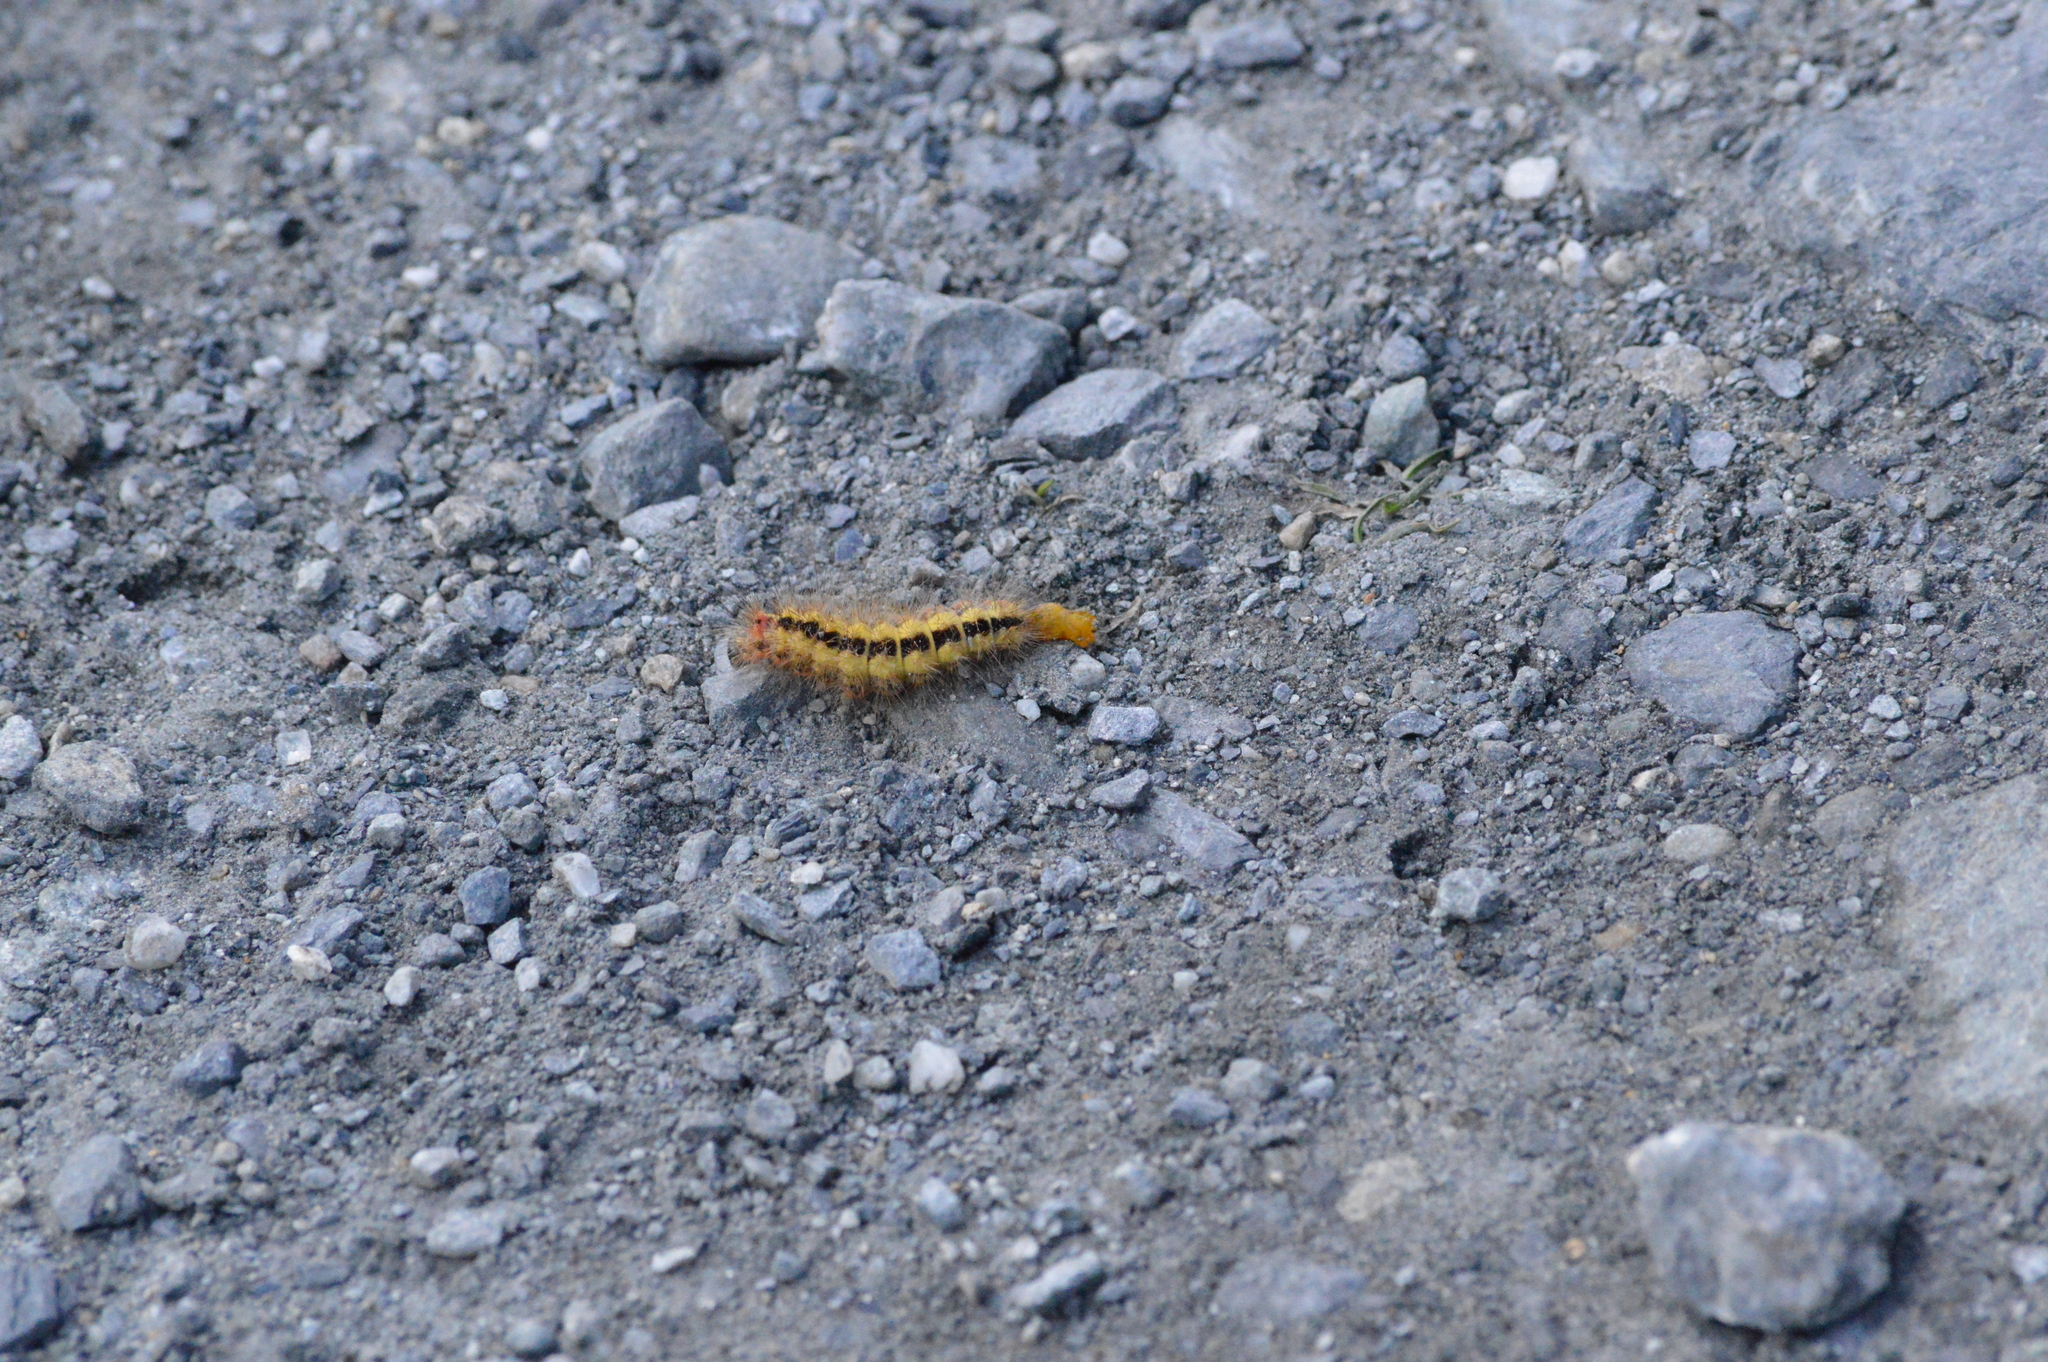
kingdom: Animalia
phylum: Arthropoda
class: Insecta
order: Lepidoptera
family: Noctuidae
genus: Acronicta
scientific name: Acronicta euphorbiae
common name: Sweet gale moth
